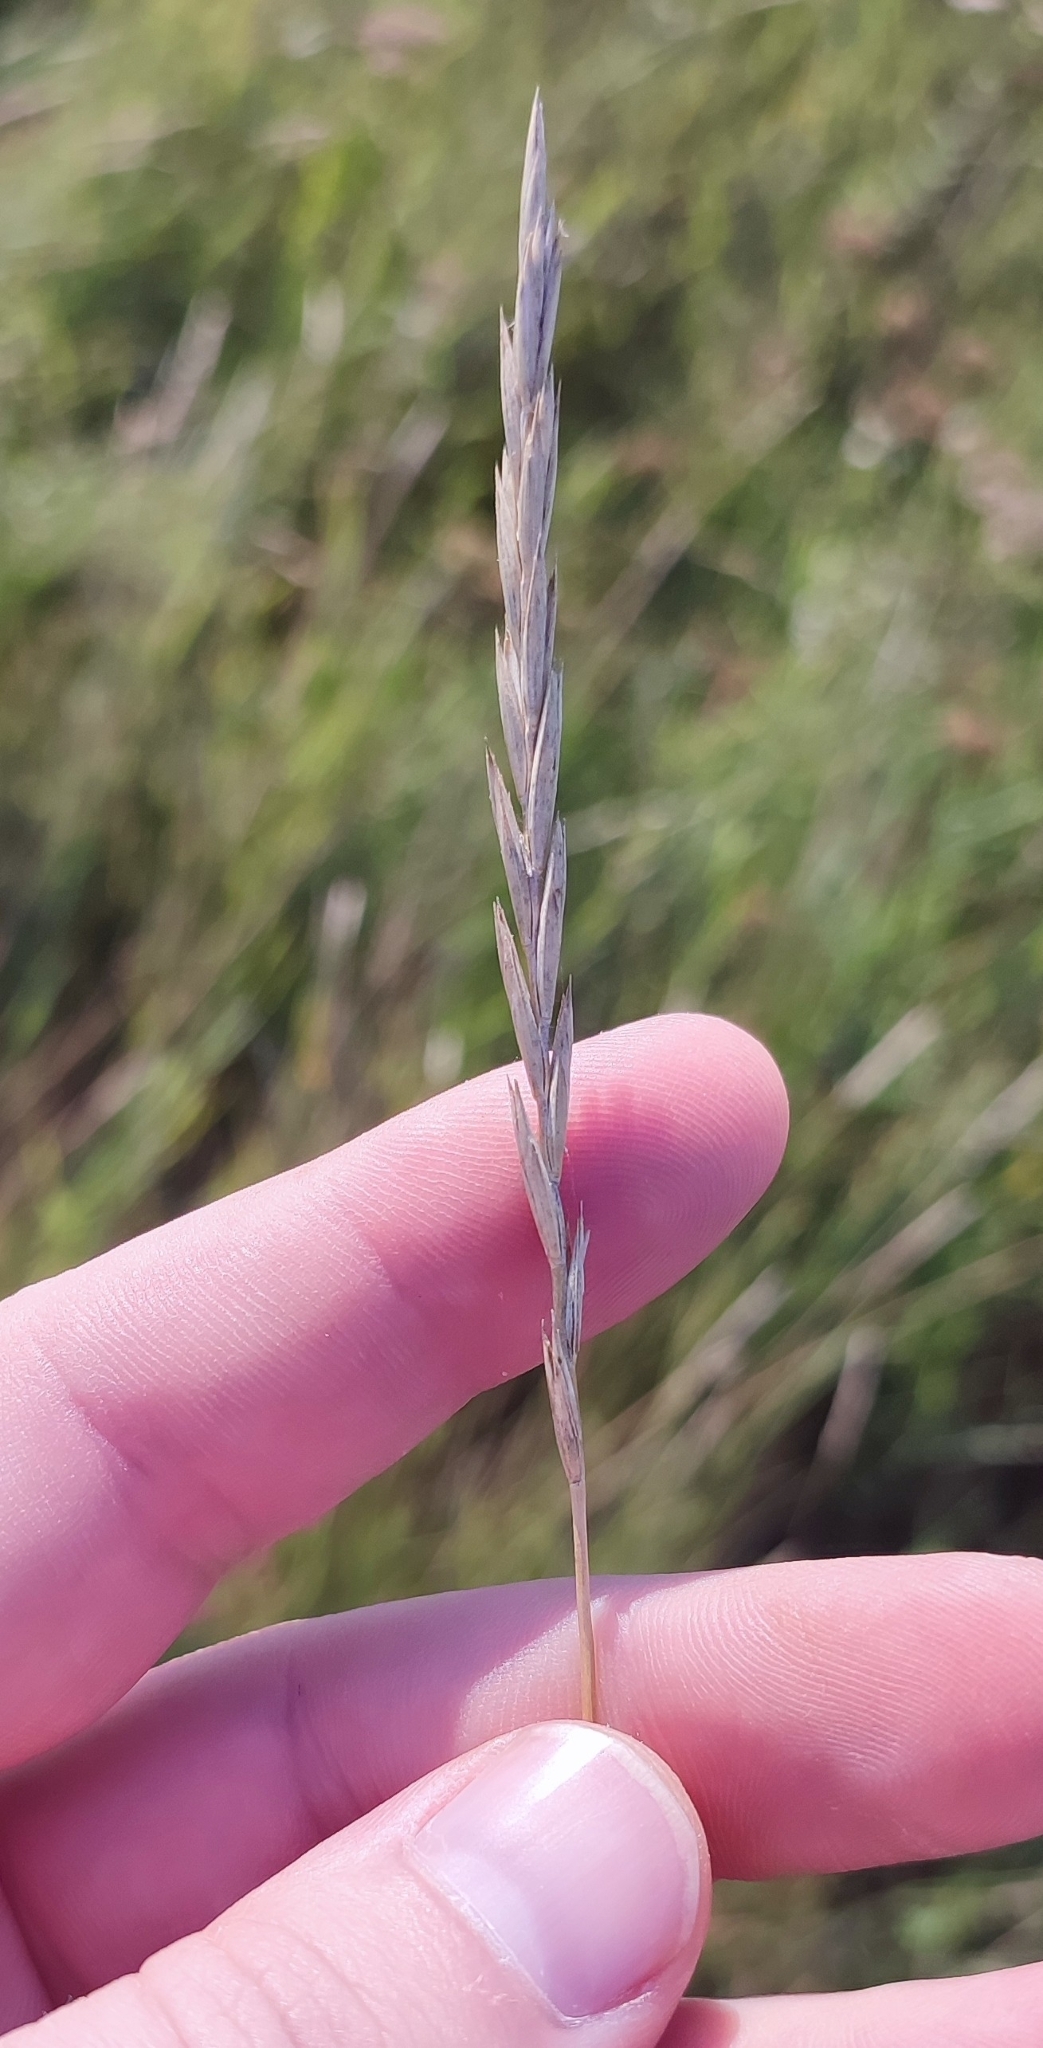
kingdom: Plantae
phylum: Tracheophyta
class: Liliopsida
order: Poales
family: Poaceae
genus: Elymus
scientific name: Elymus repens
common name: Quackgrass
